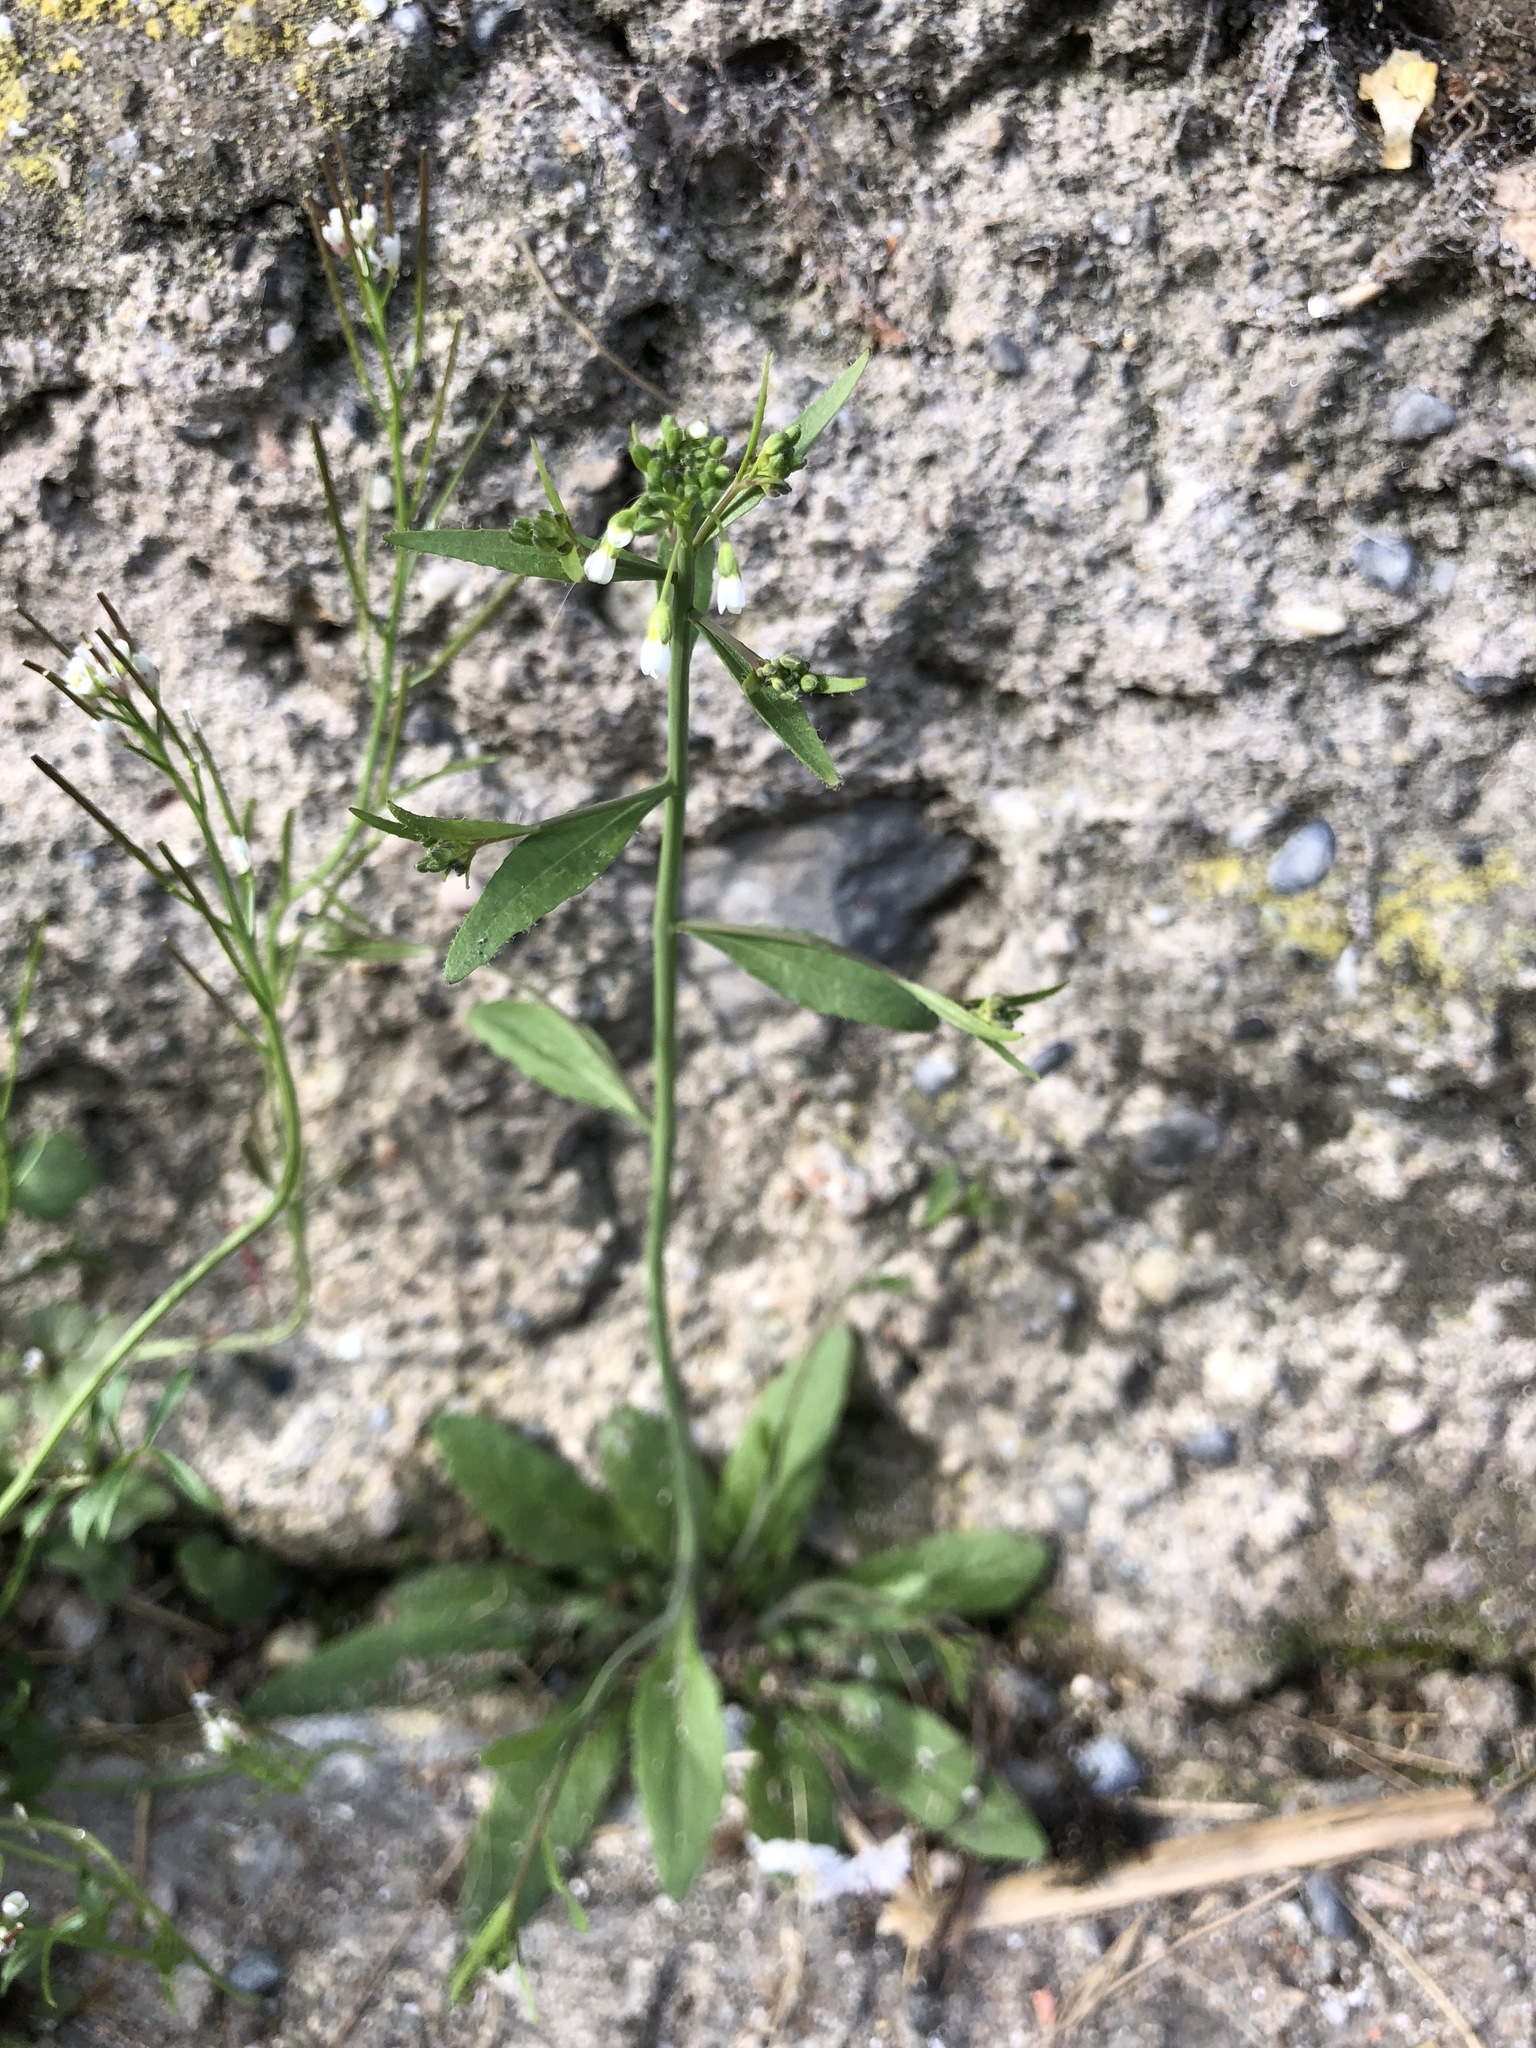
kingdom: Plantae
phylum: Tracheophyta
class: Magnoliopsida
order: Brassicales
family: Brassicaceae
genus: Arabidopsis
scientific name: Arabidopsis thaliana
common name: Thale cress
